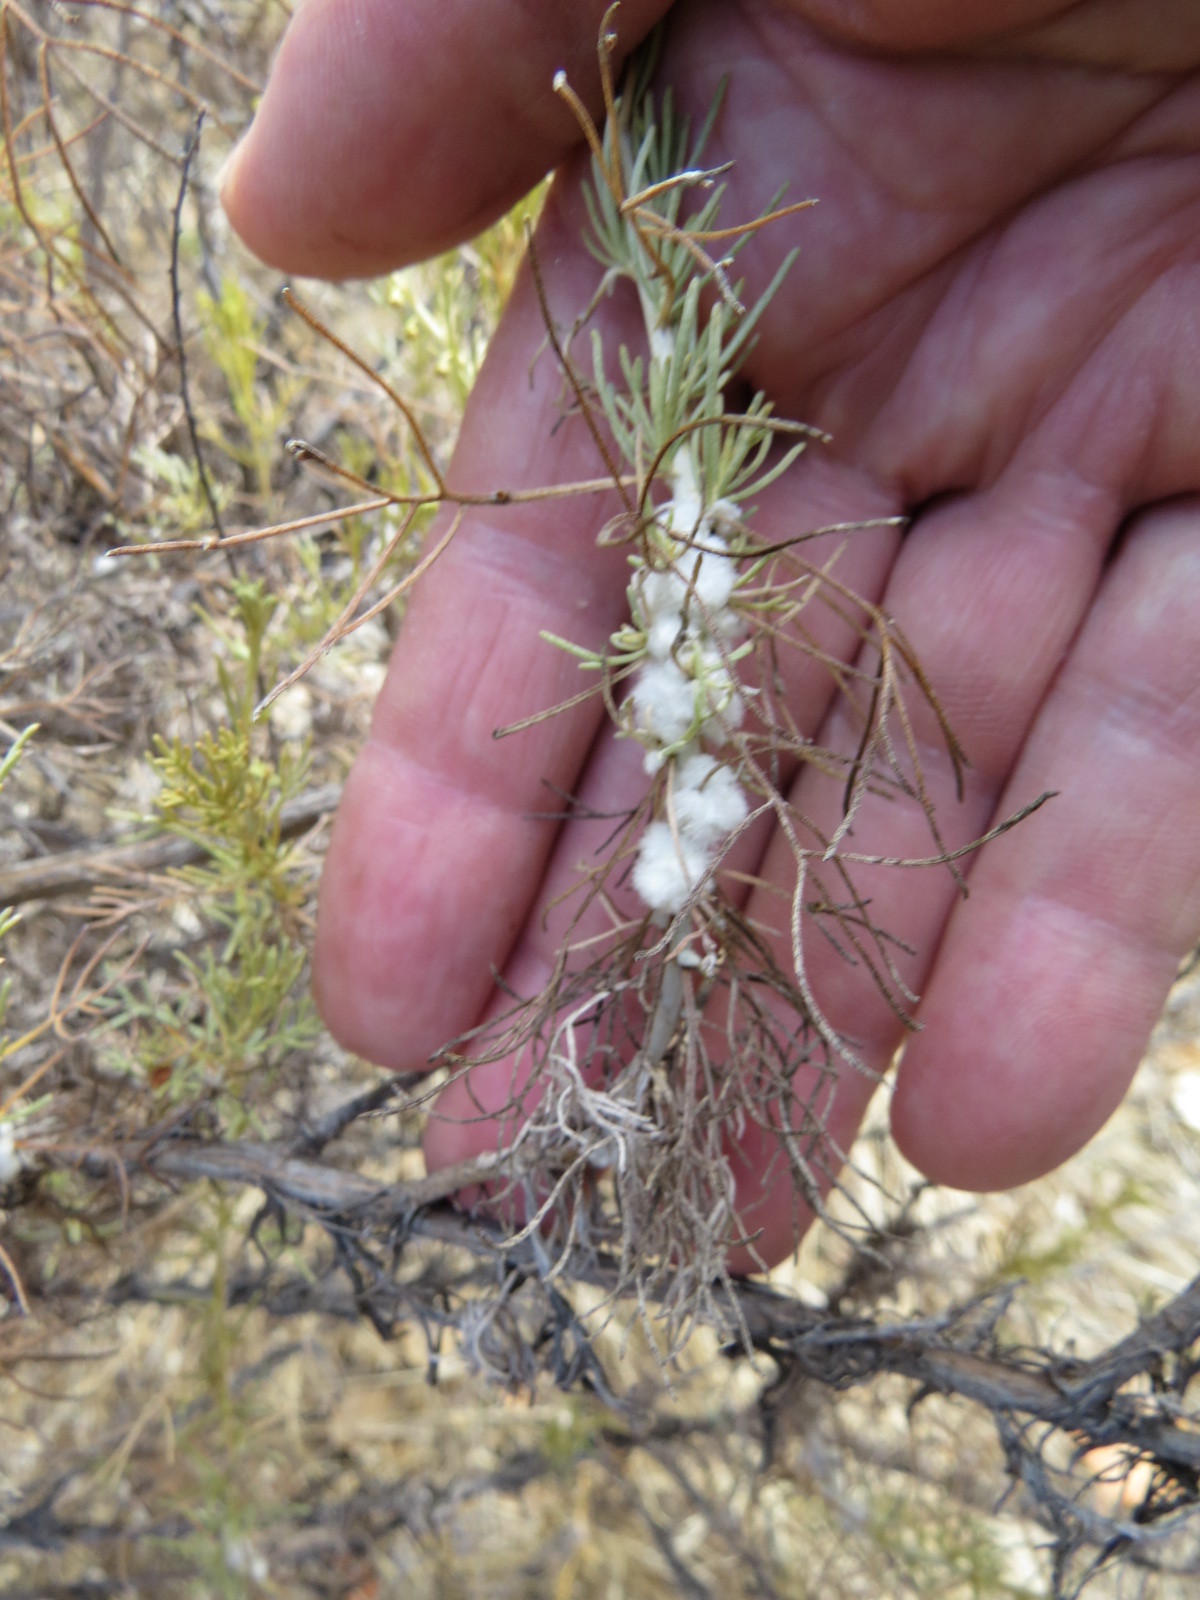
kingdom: Animalia
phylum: Arthropoda
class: Insecta
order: Diptera
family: Cecidomyiidae
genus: Rhopalomyia
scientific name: Rhopalomyia floccosa
